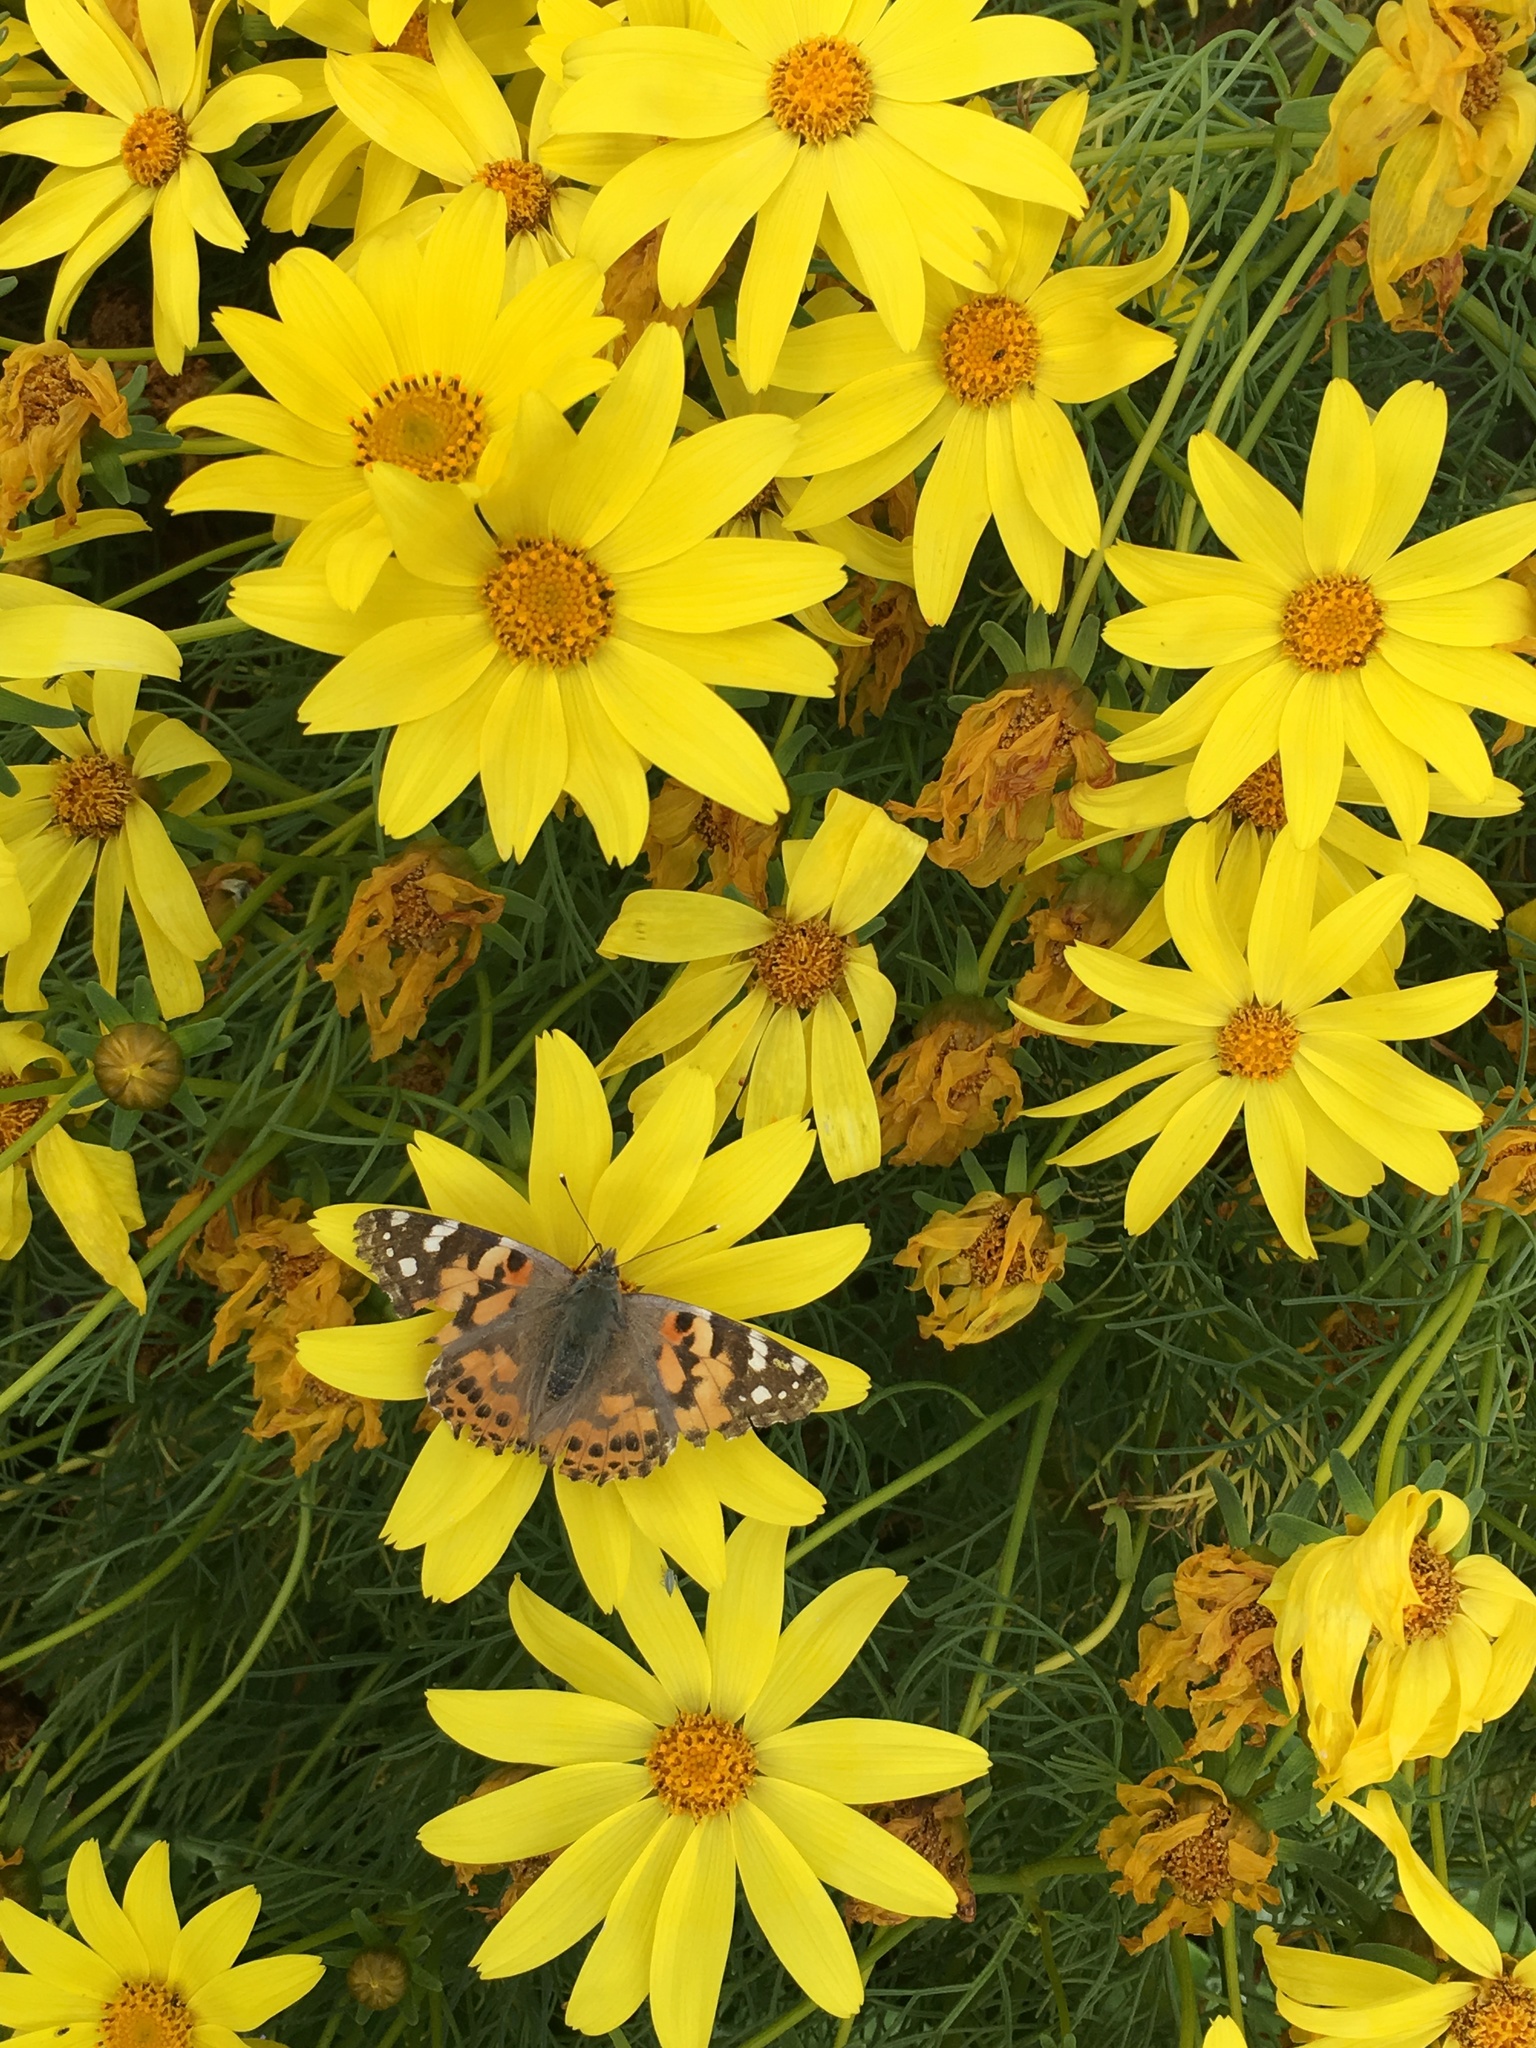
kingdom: Animalia
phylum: Arthropoda
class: Insecta
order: Lepidoptera
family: Nymphalidae
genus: Vanessa
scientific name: Vanessa cardui
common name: Painted lady
